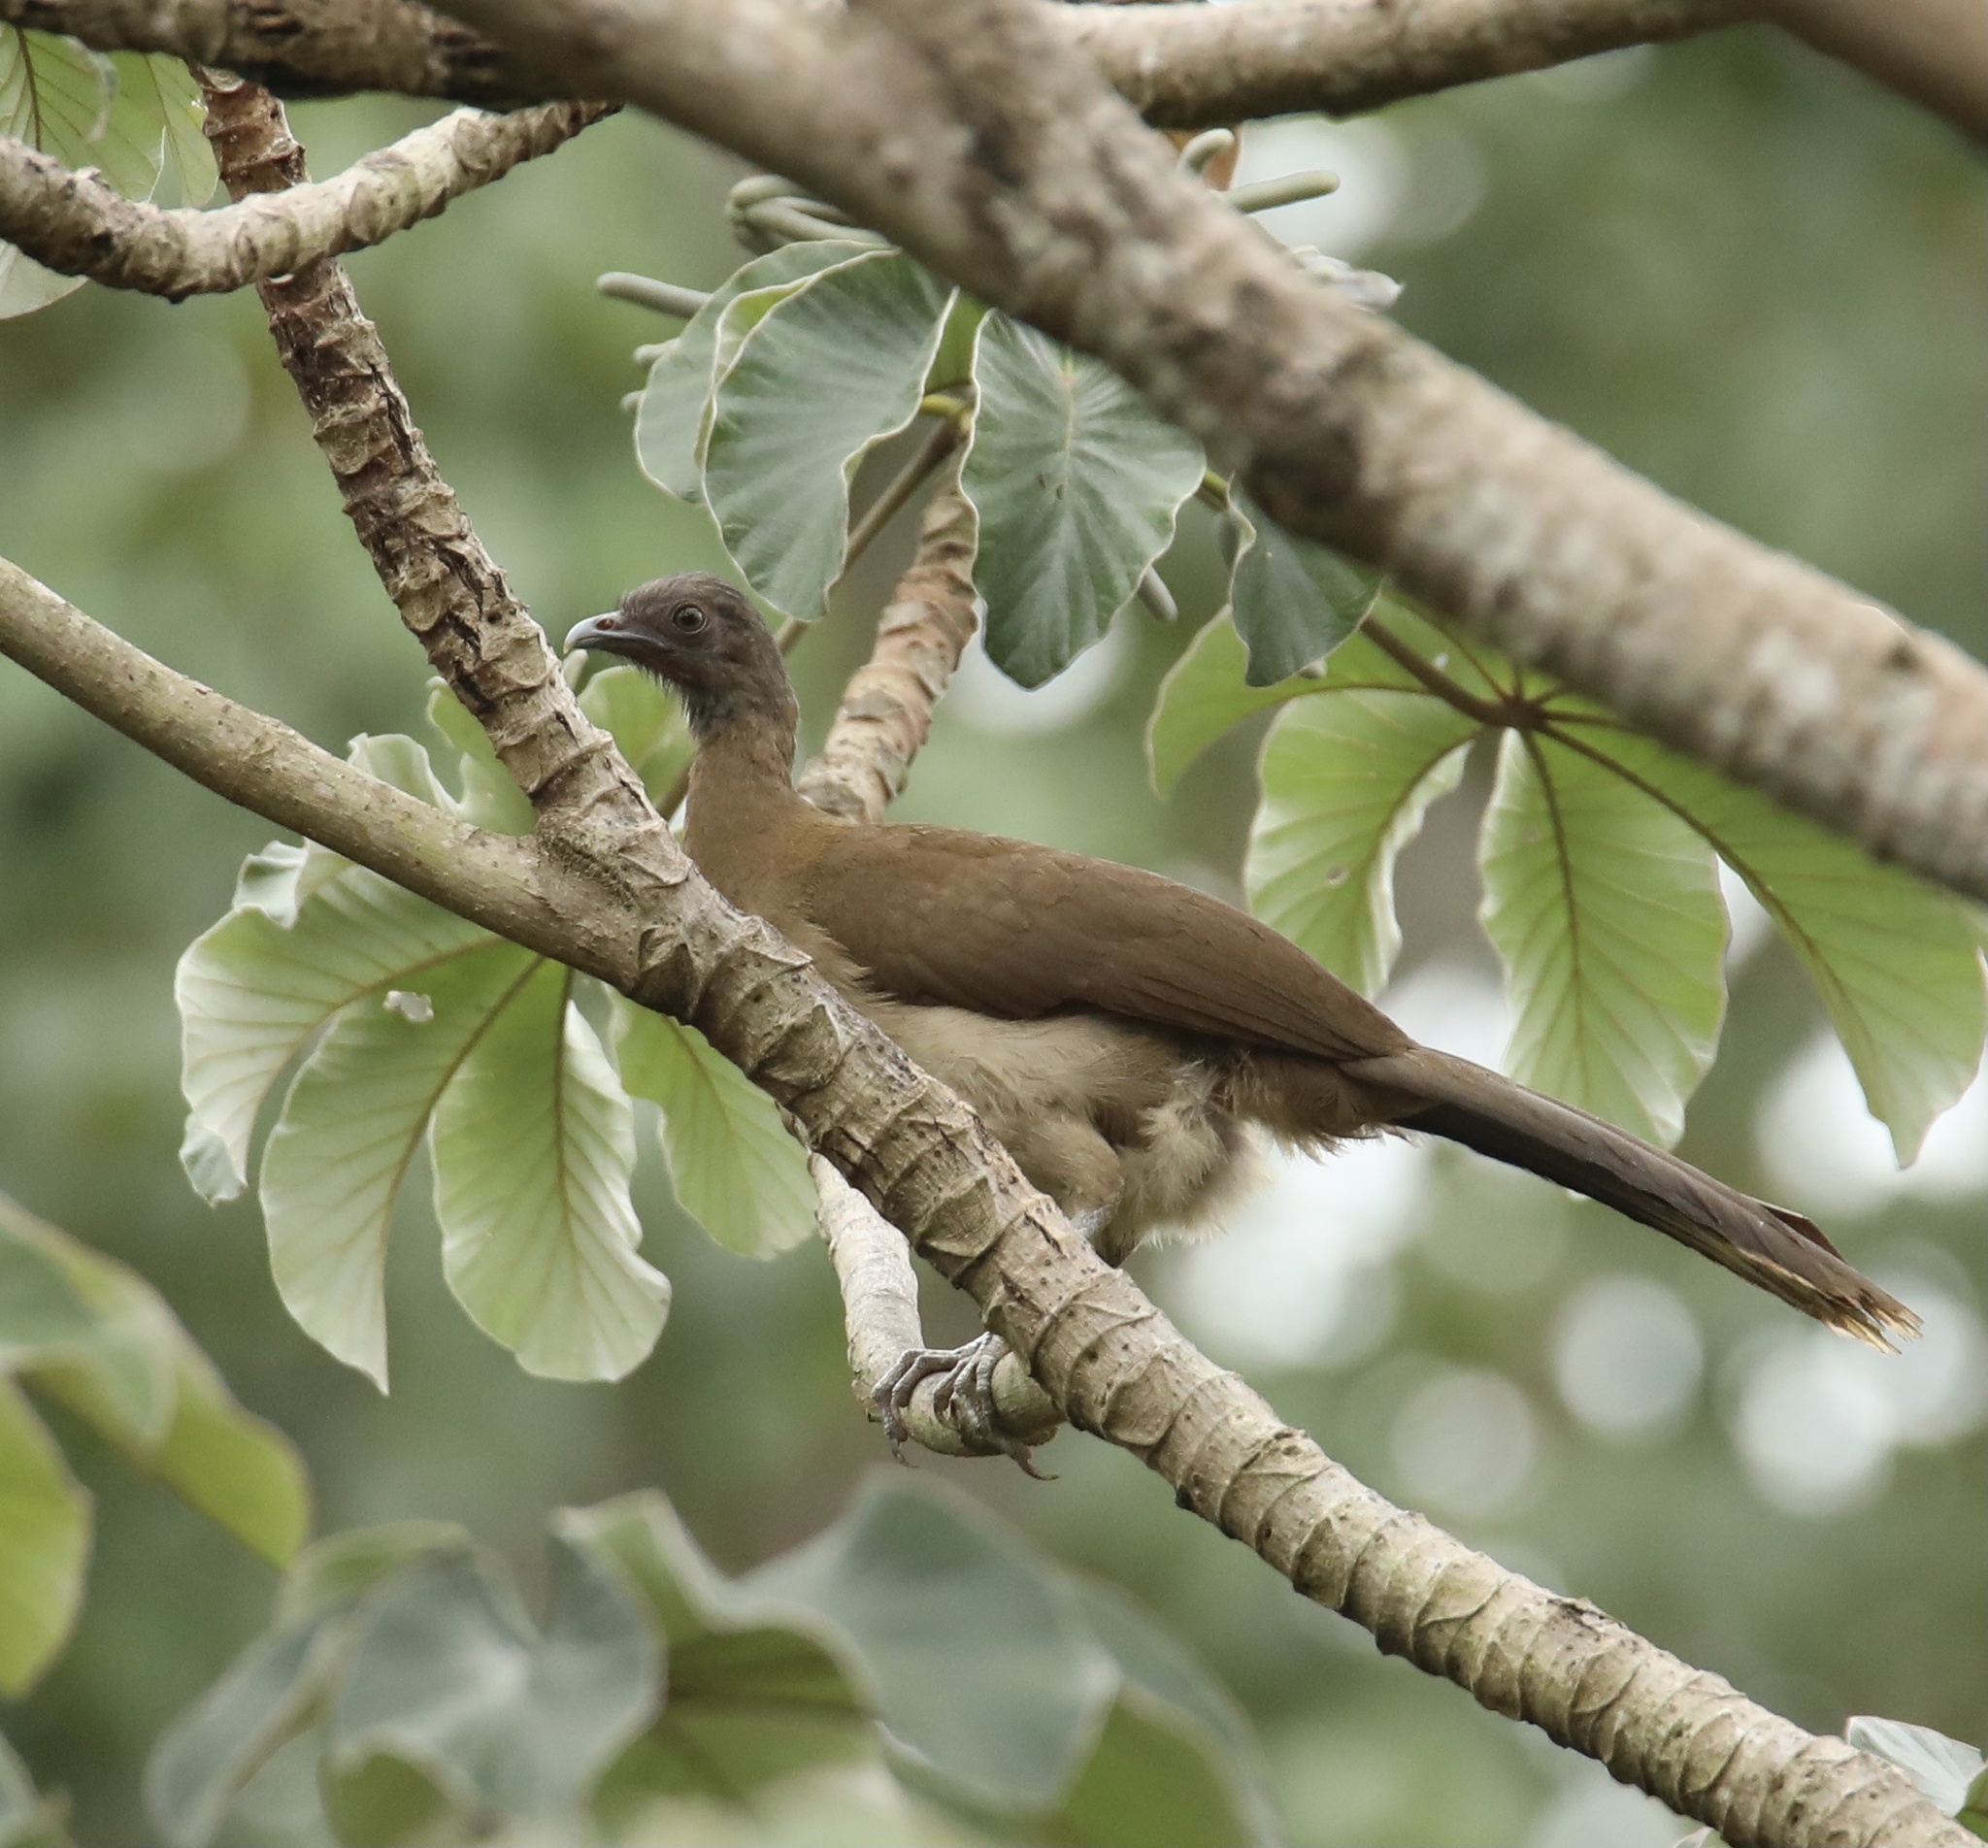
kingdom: Animalia
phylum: Chordata
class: Aves
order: Galliformes
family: Cracidae
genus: Ortalis
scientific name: Ortalis cinereiceps
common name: Grey-headed chachalaca
